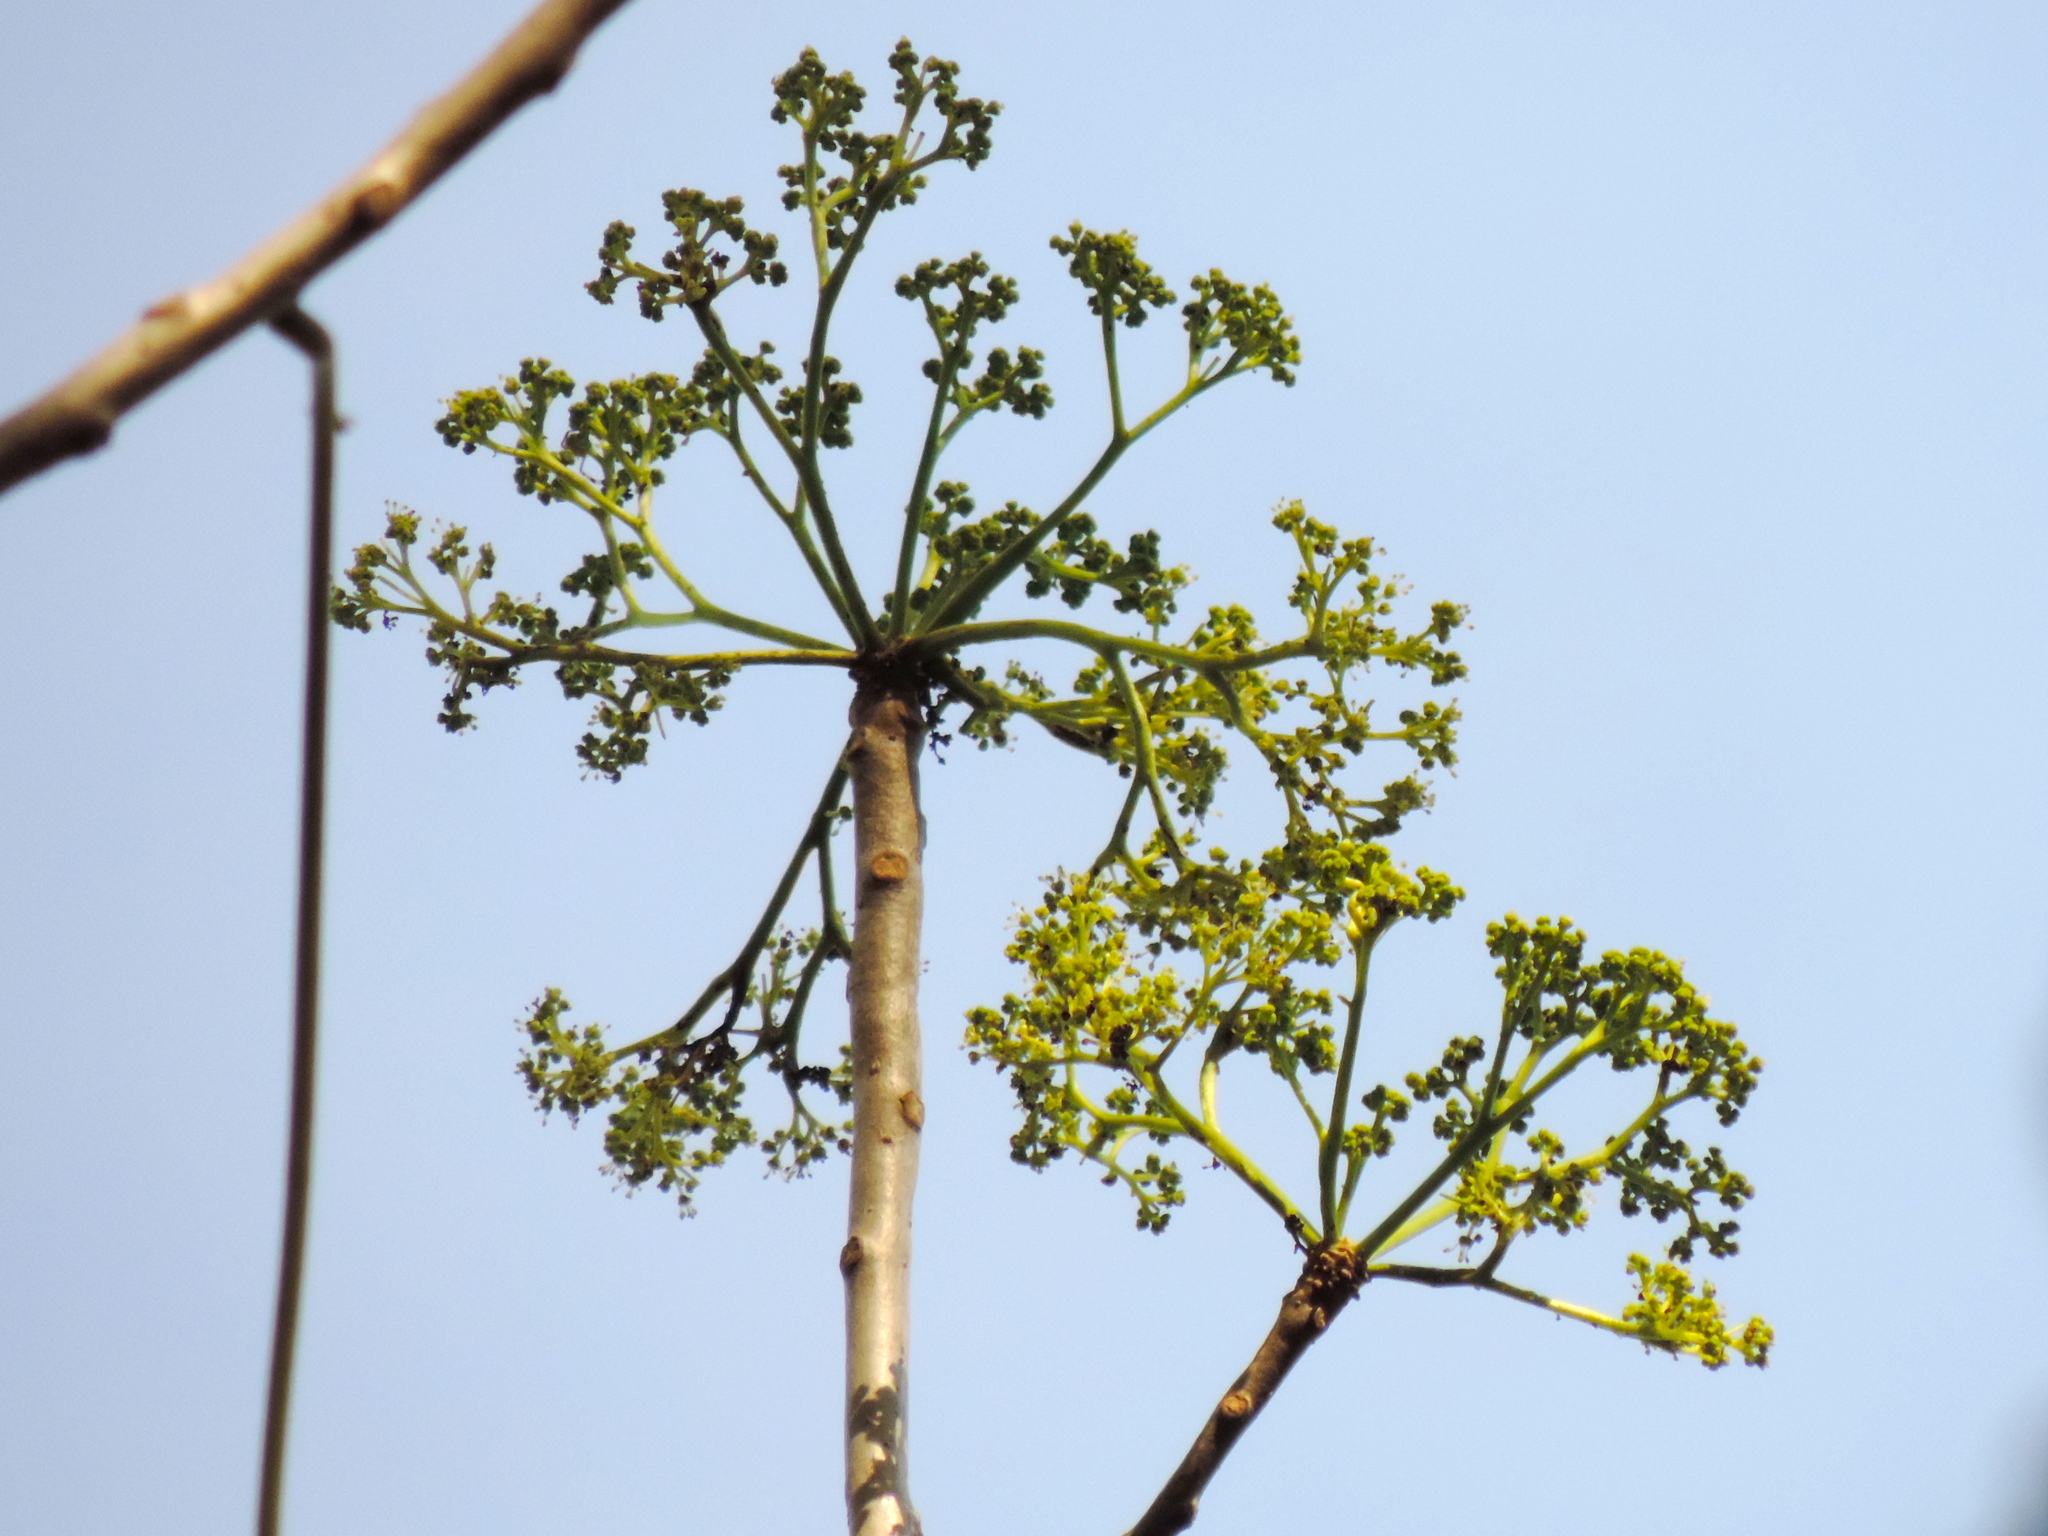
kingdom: Plantae
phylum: Tracheophyta
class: Magnoliopsida
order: Laurales
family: Hernandiaceae
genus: Gyrocarpus
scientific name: Gyrocarpus jatrophifolius
